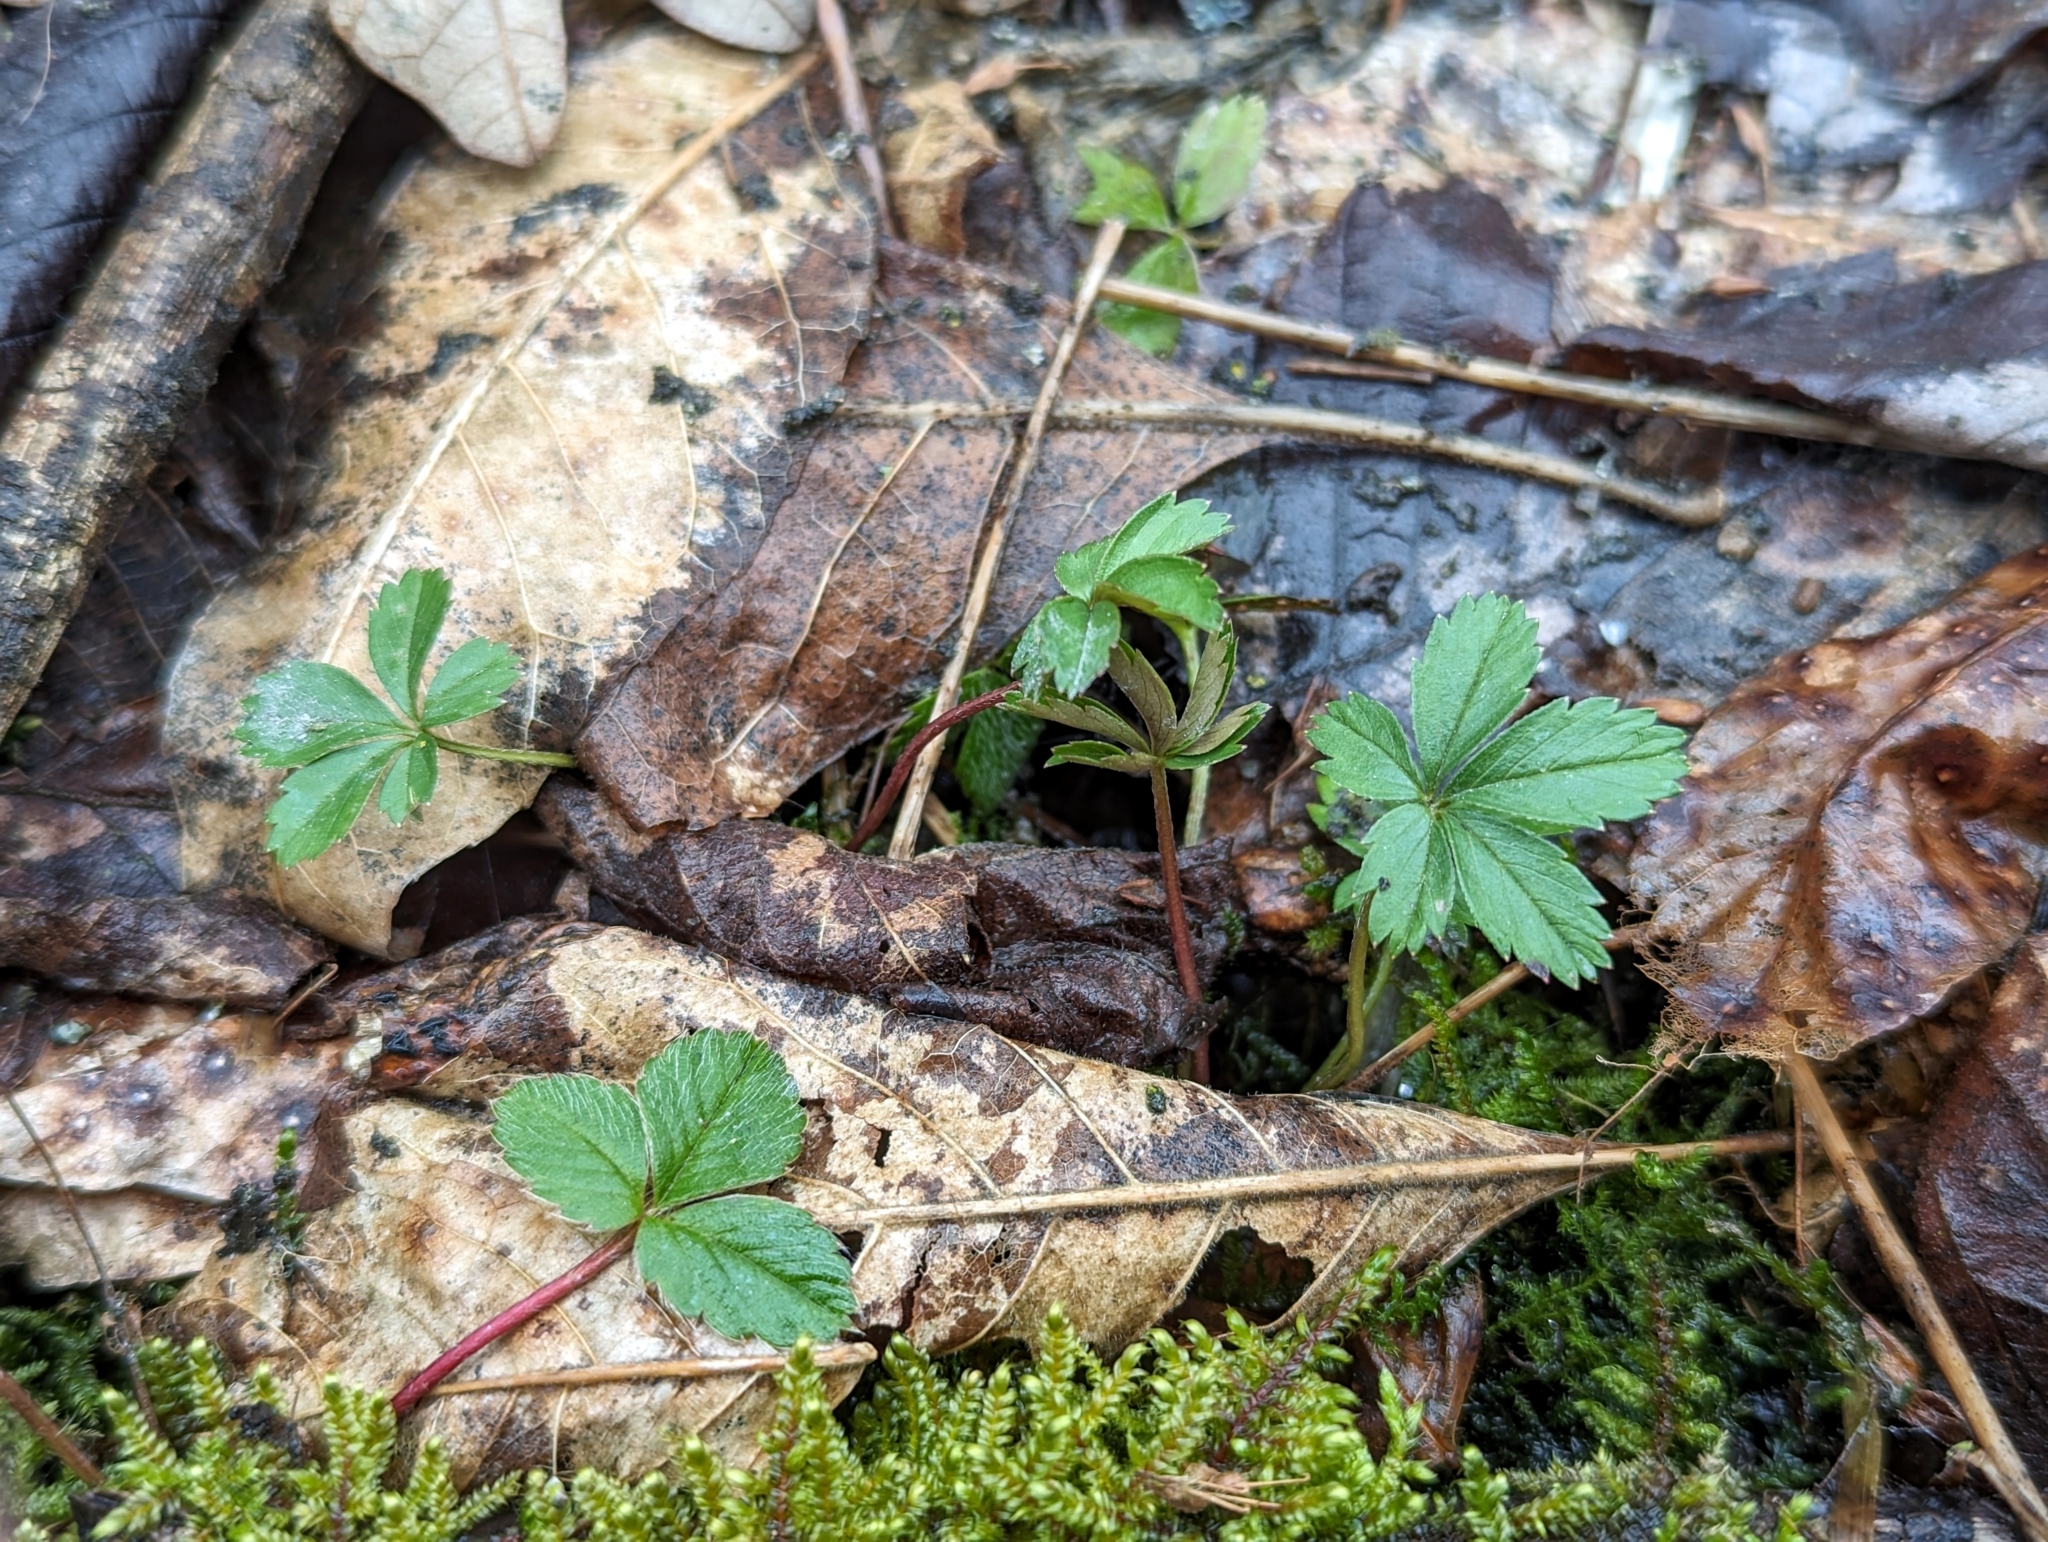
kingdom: Plantae
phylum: Tracheophyta
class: Magnoliopsida
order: Rosales
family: Rosaceae
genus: Potentilla
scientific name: Potentilla
